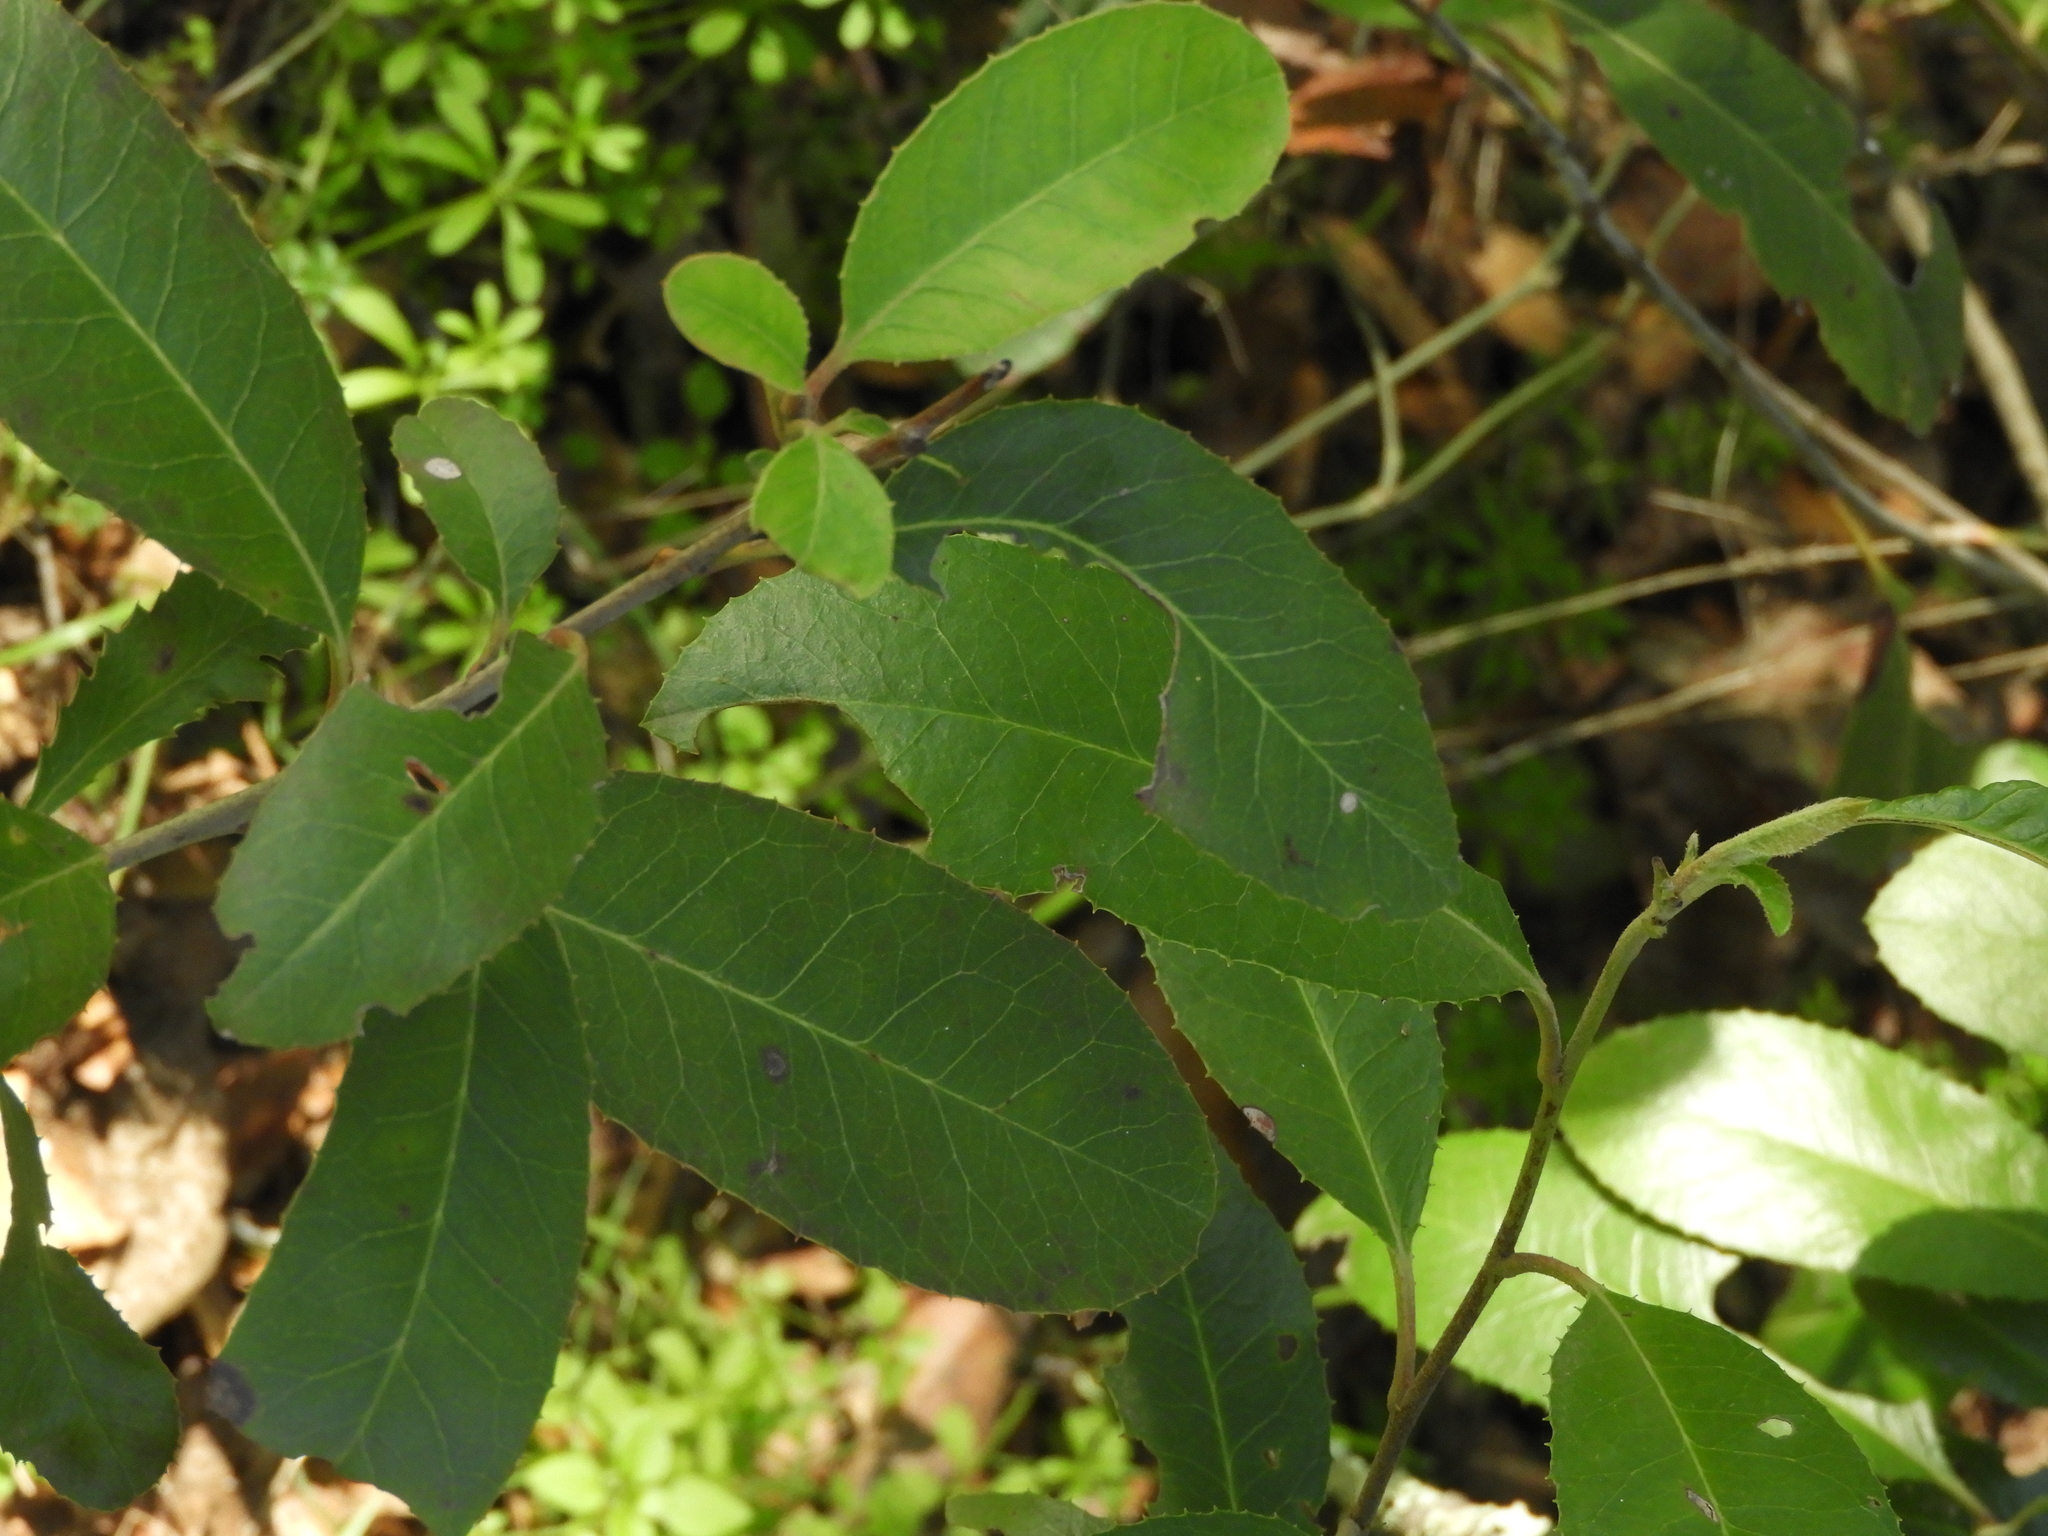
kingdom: Plantae
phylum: Tracheophyta
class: Magnoliopsida
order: Rosales
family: Rosaceae
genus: Heteromeles
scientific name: Heteromeles arbutifolia
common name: California-holly
